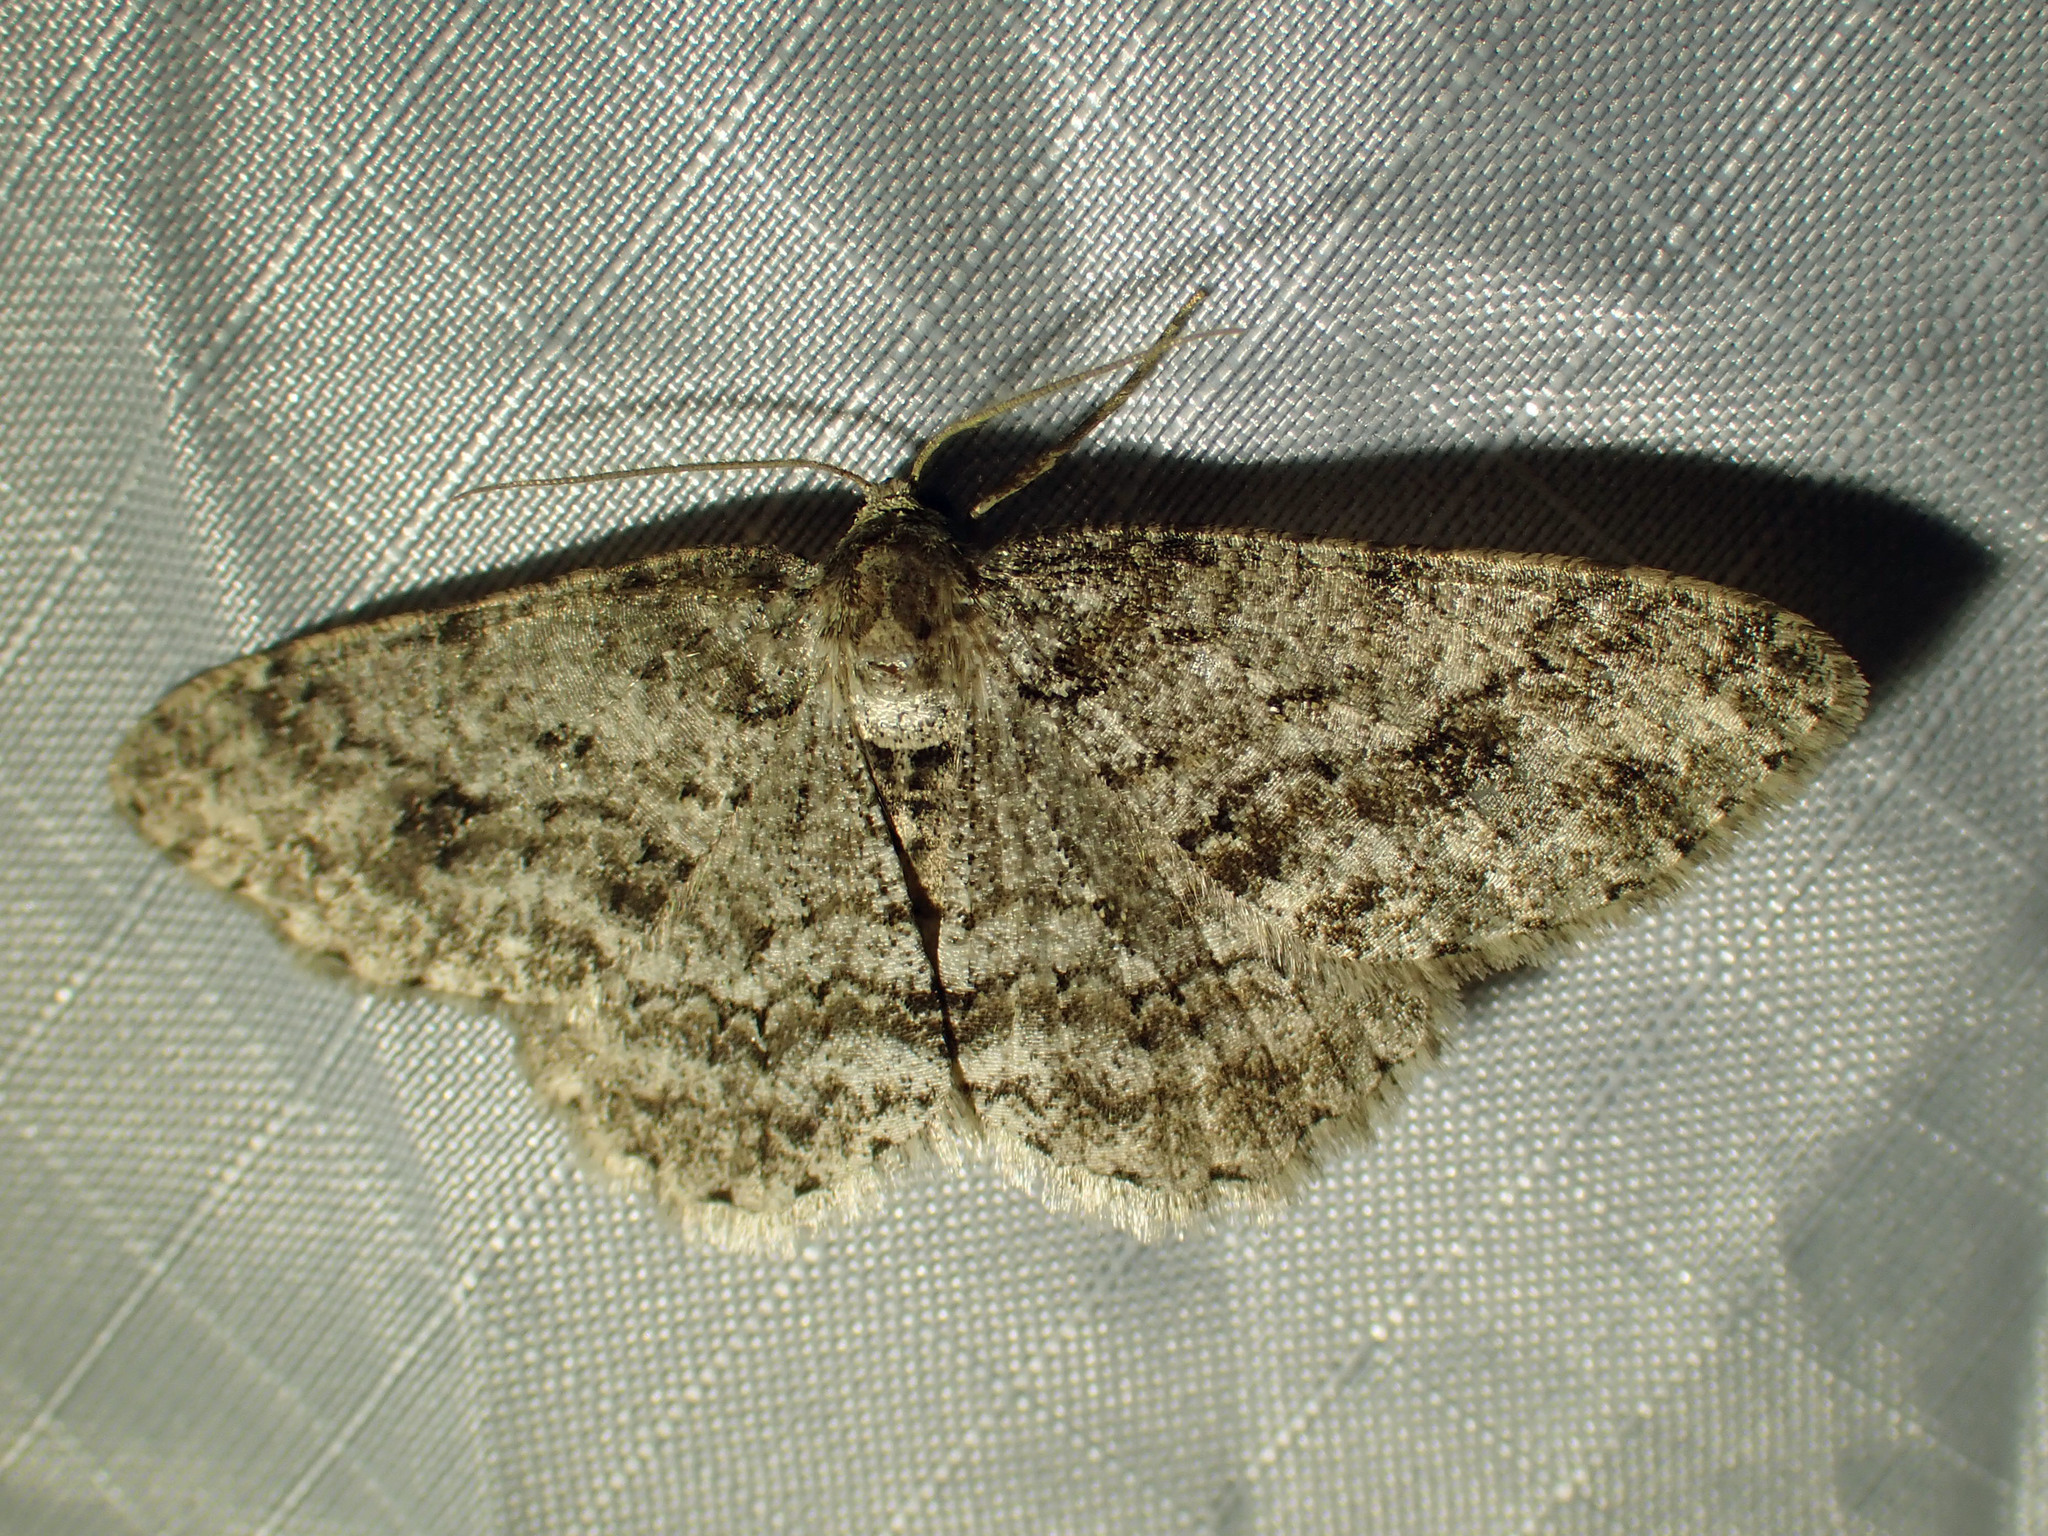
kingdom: Animalia
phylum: Arthropoda
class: Insecta
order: Lepidoptera
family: Geometridae
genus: Ectropis
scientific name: Ectropis crepuscularia
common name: Engrailed
